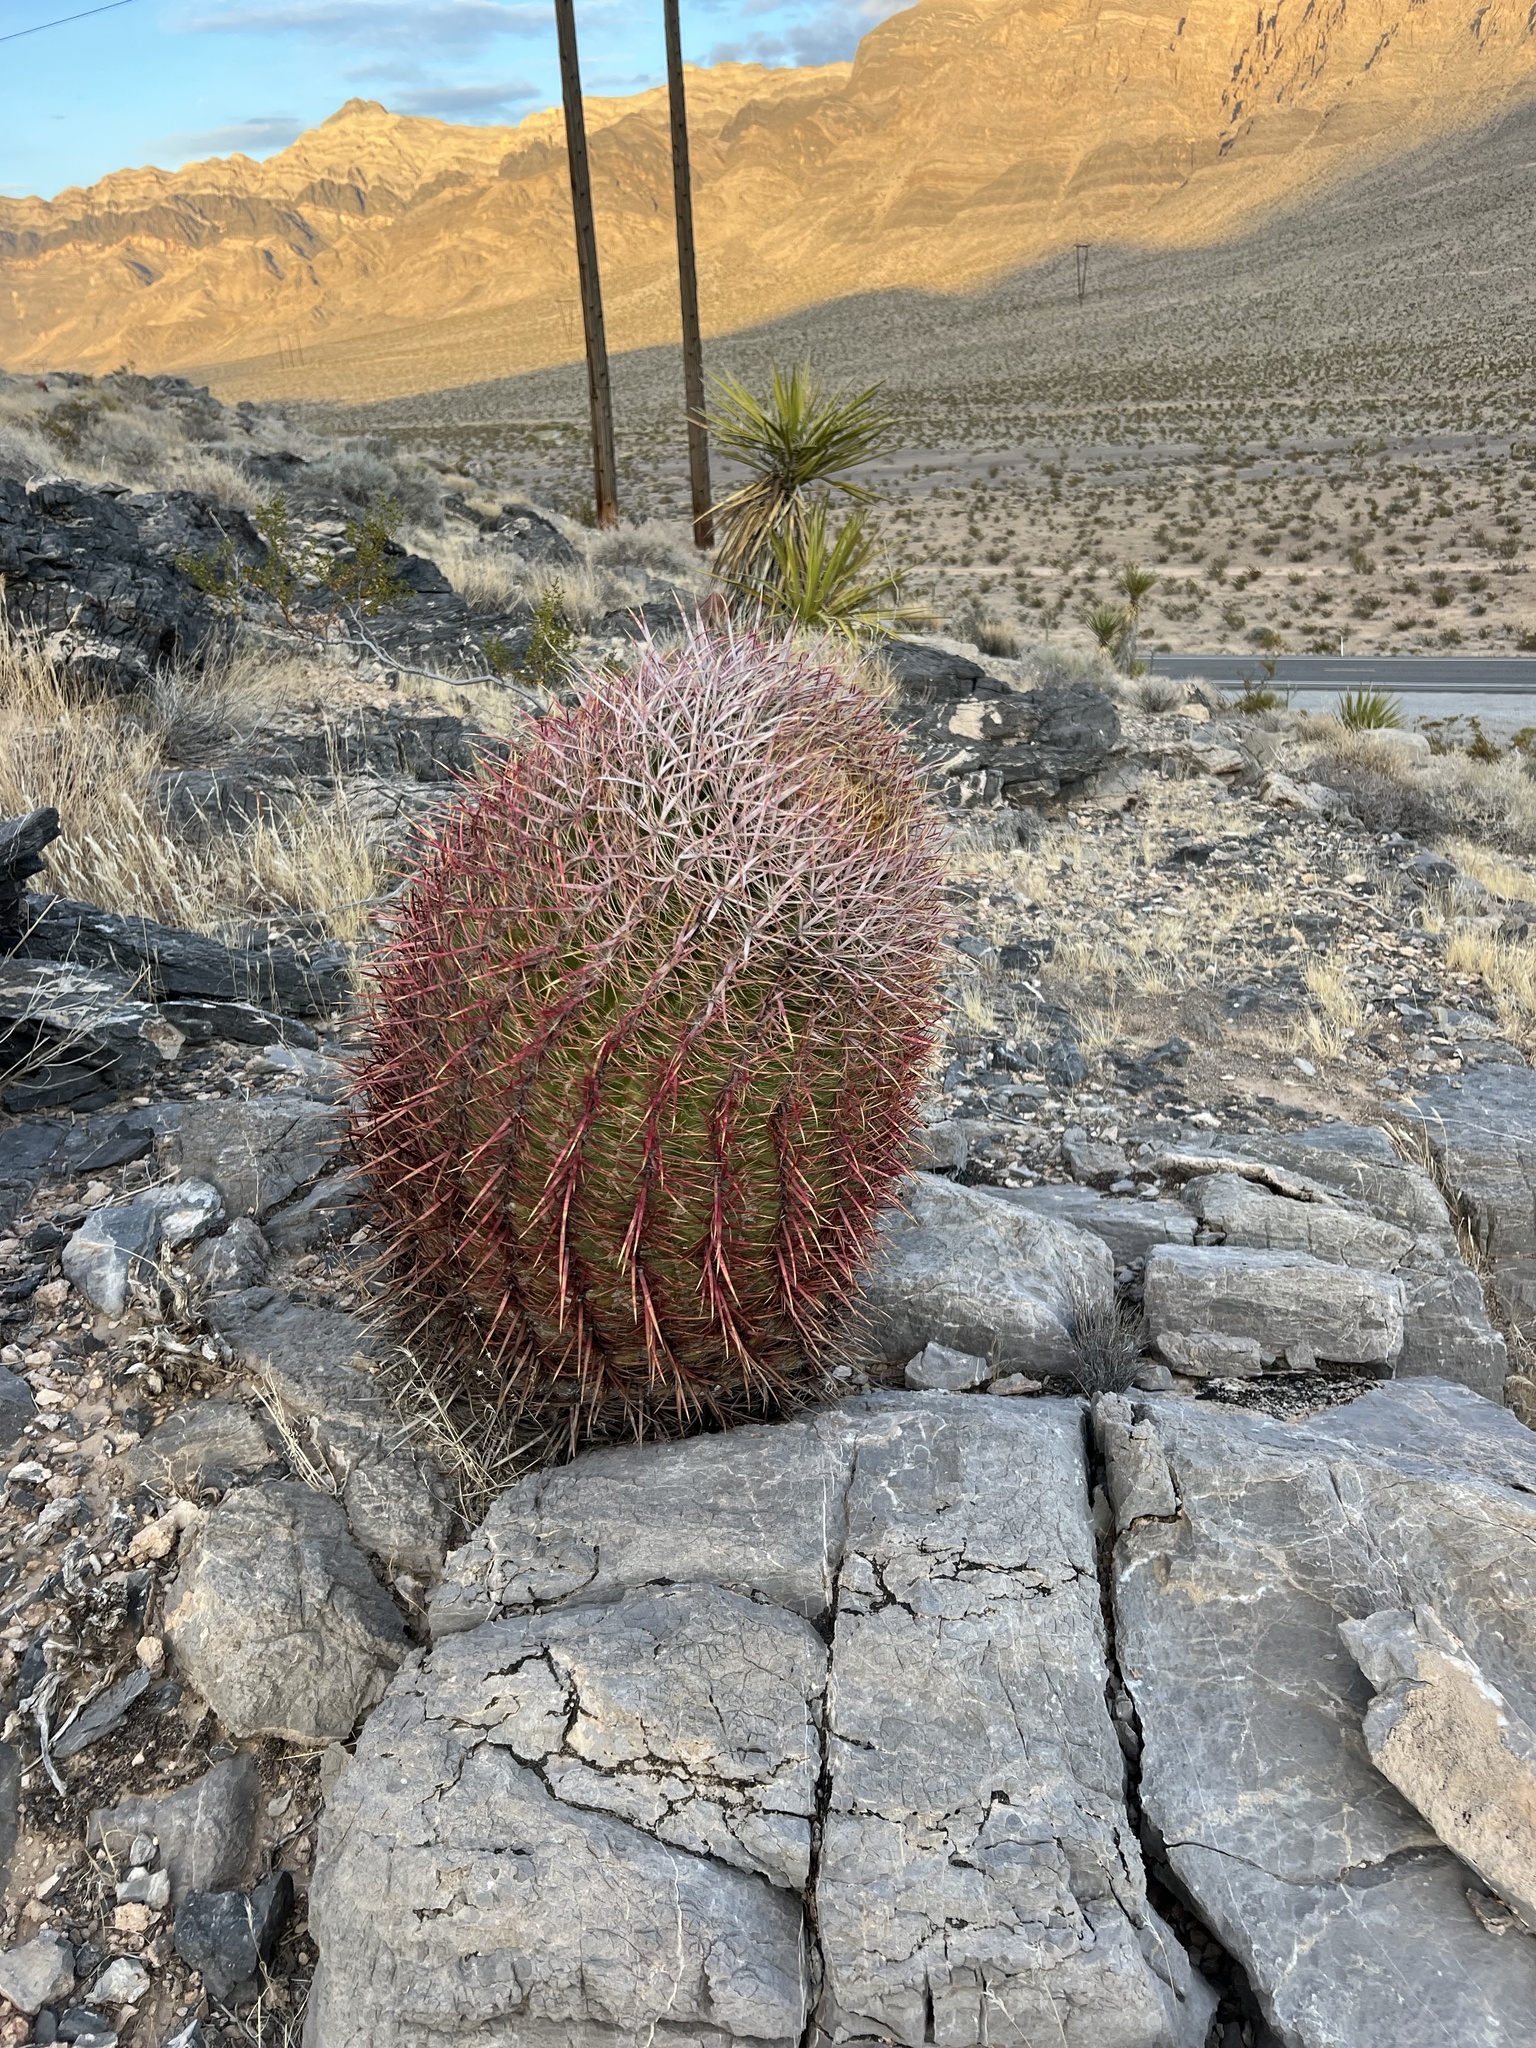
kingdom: Plantae
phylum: Tracheophyta
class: Magnoliopsida
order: Caryophyllales
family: Cactaceae
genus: Ferocactus
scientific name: Ferocactus cylindraceus
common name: California barrel cactus
